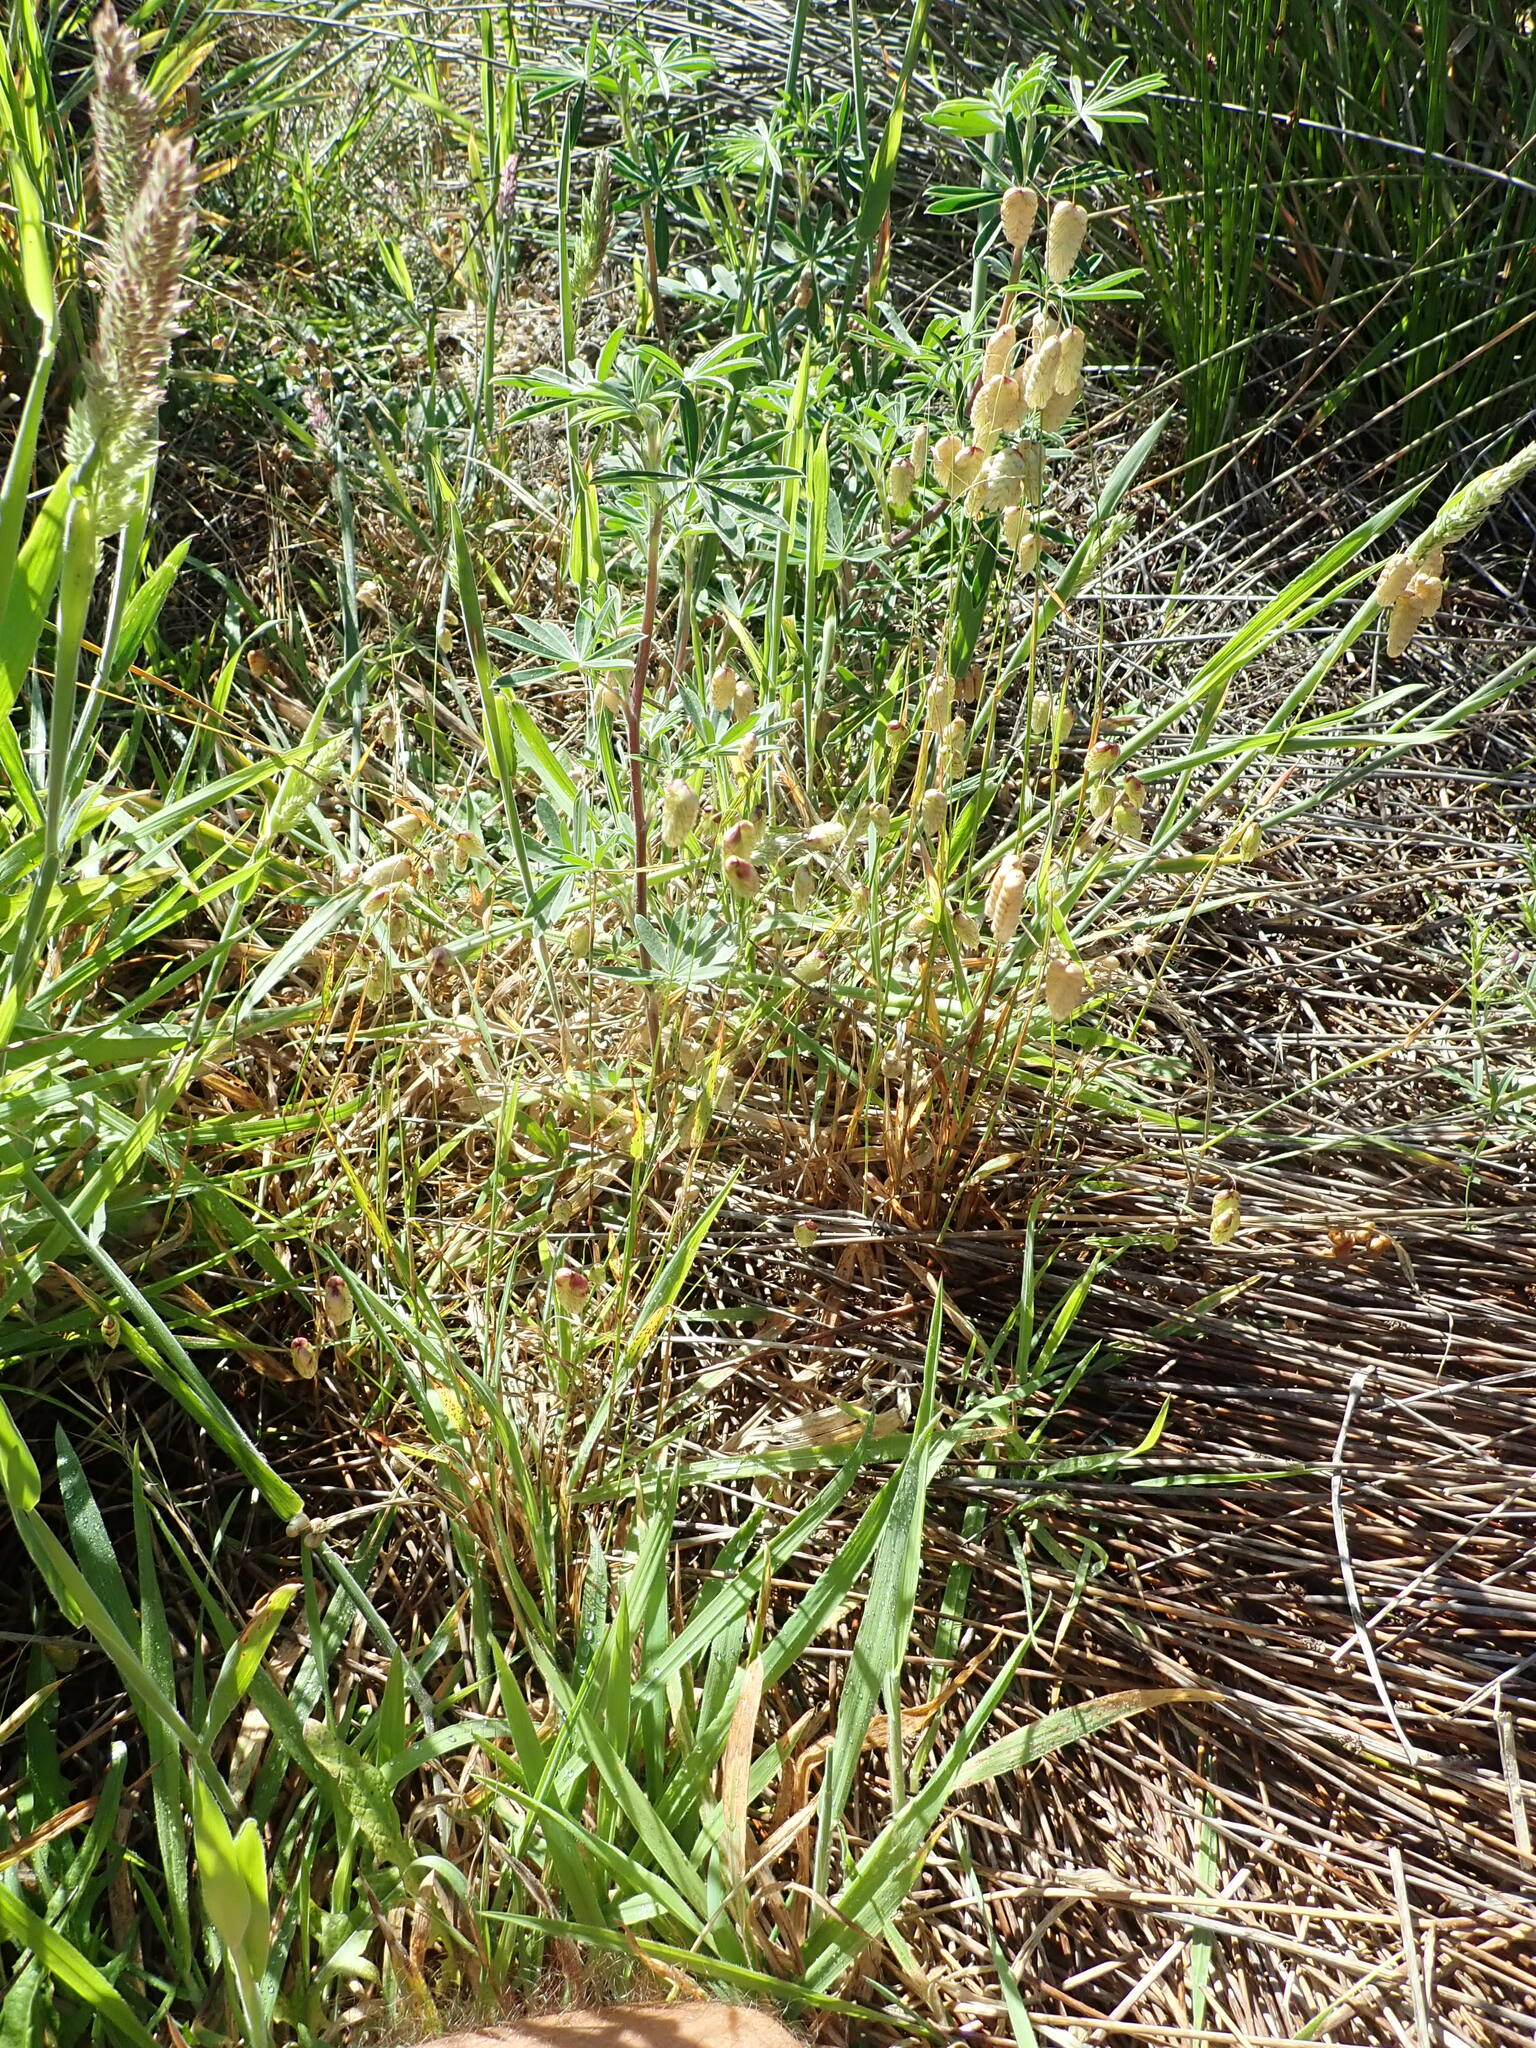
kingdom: Plantae
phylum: Tracheophyta
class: Liliopsida
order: Poales
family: Poaceae
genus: Briza
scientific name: Briza maxima
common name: Big quakinggrass
